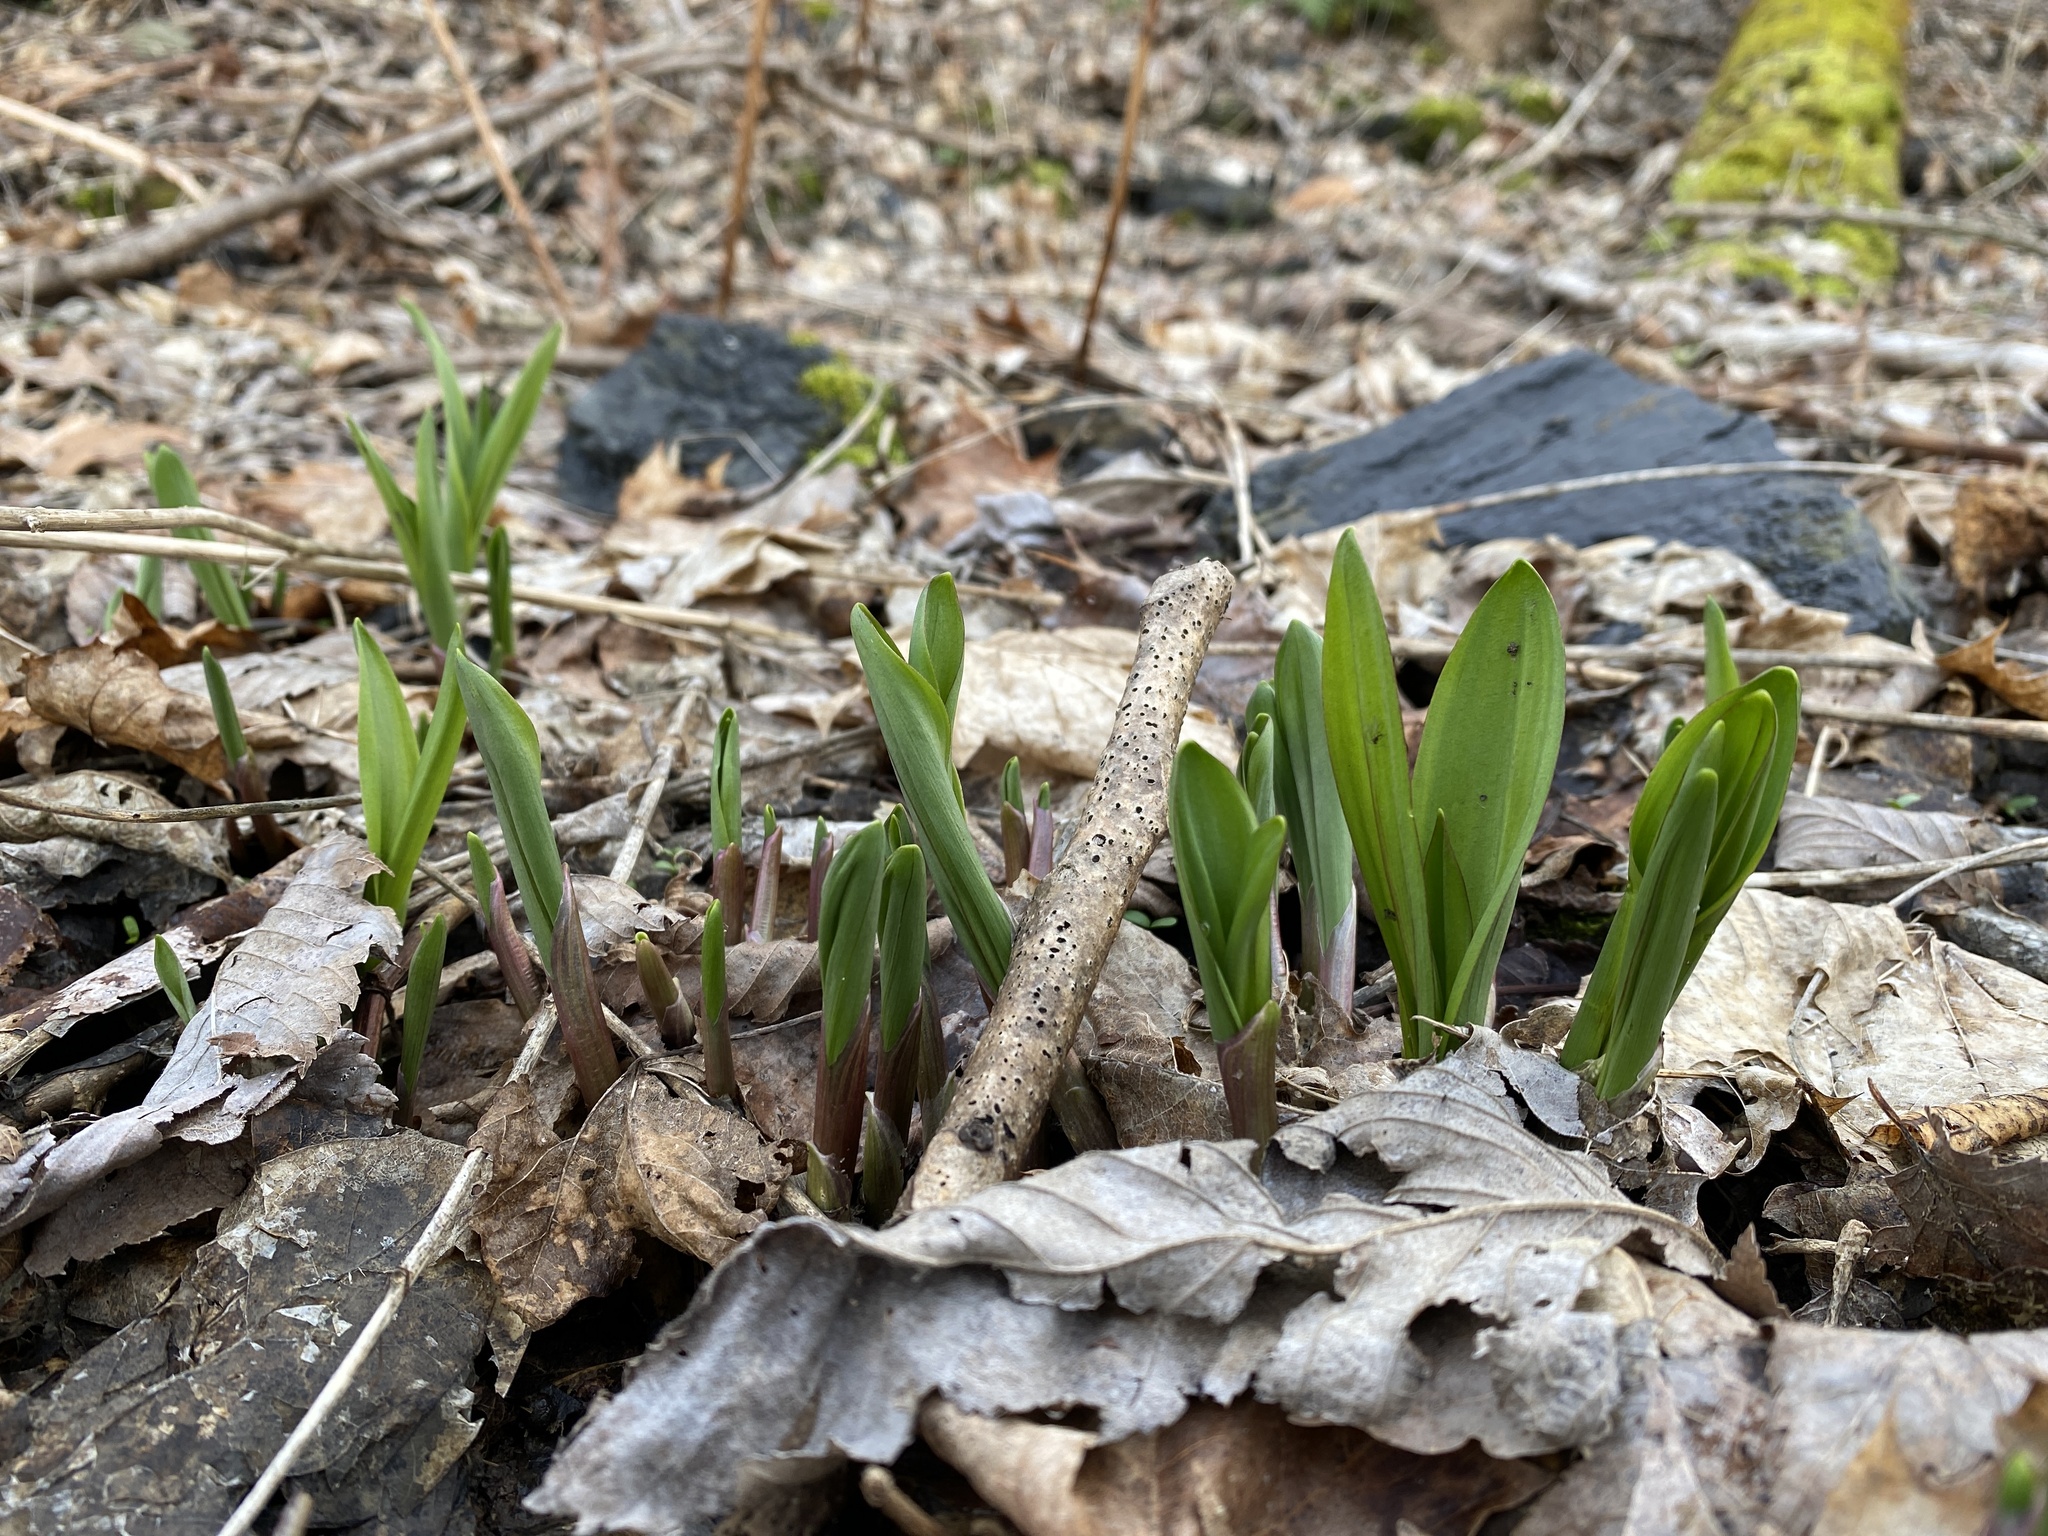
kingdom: Plantae
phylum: Tracheophyta
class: Liliopsida
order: Asparagales
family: Amaryllidaceae
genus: Allium
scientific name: Allium tricoccum
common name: Ramp
